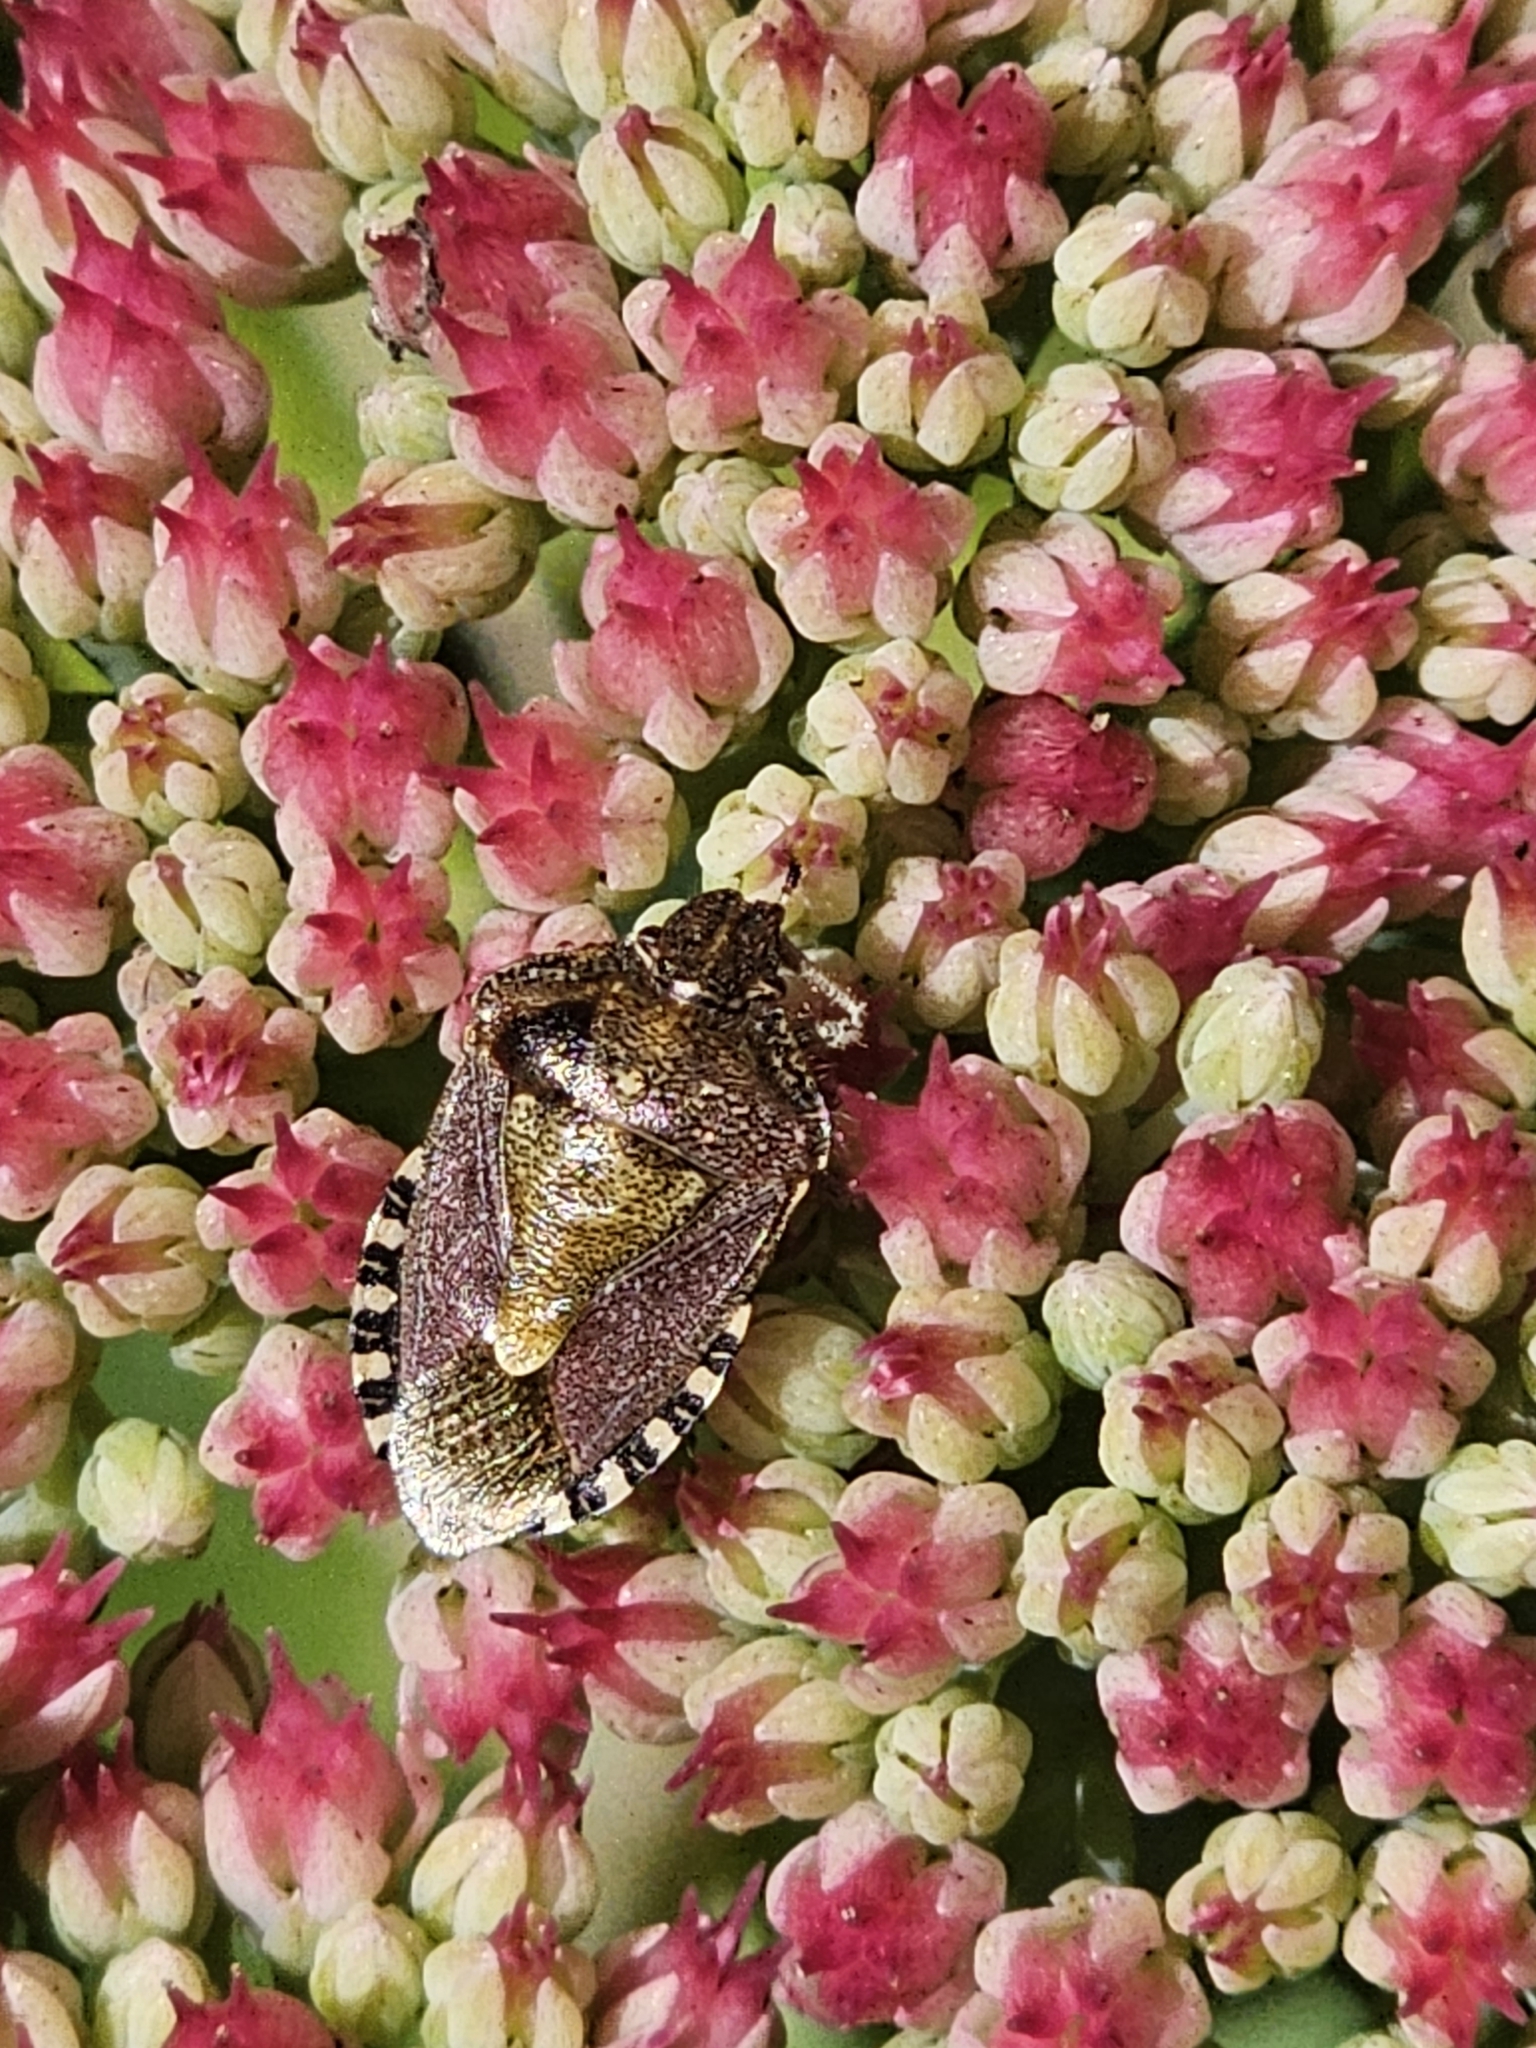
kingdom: Animalia
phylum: Arthropoda
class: Insecta
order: Hemiptera
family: Pentatomidae
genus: Dolycoris
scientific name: Dolycoris baccarum
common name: Sloe bug
